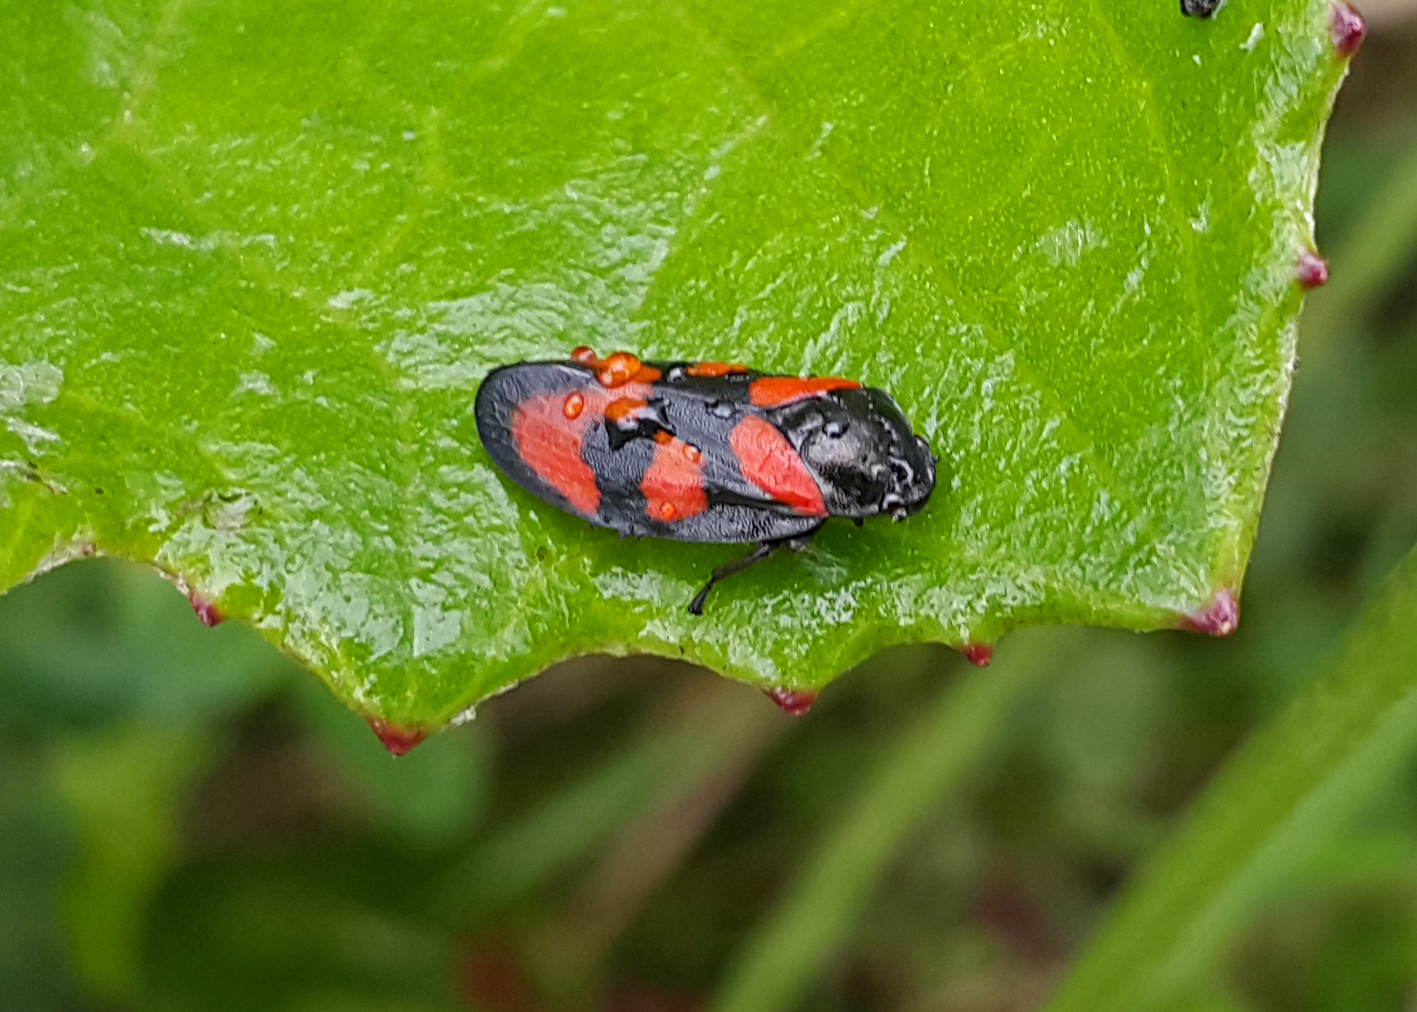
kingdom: Animalia
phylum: Arthropoda
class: Insecta
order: Hemiptera
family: Cercopidae
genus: Cercopis
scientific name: Cercopis vulnerata
